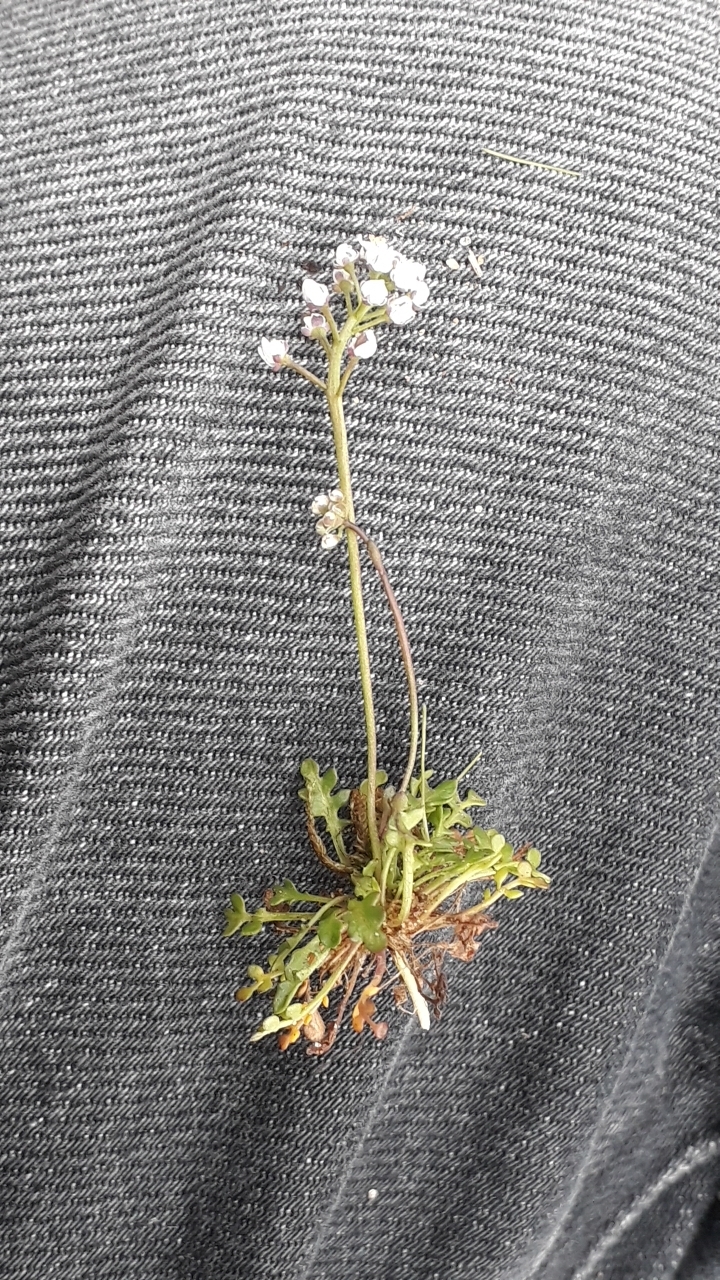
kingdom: Plantae
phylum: Tracheophyta
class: Magnoliopsida
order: Brassicales
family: Brassicaceae
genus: Teesdalia
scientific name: Teesdalia nudicaulis
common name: Shepherd's cress
